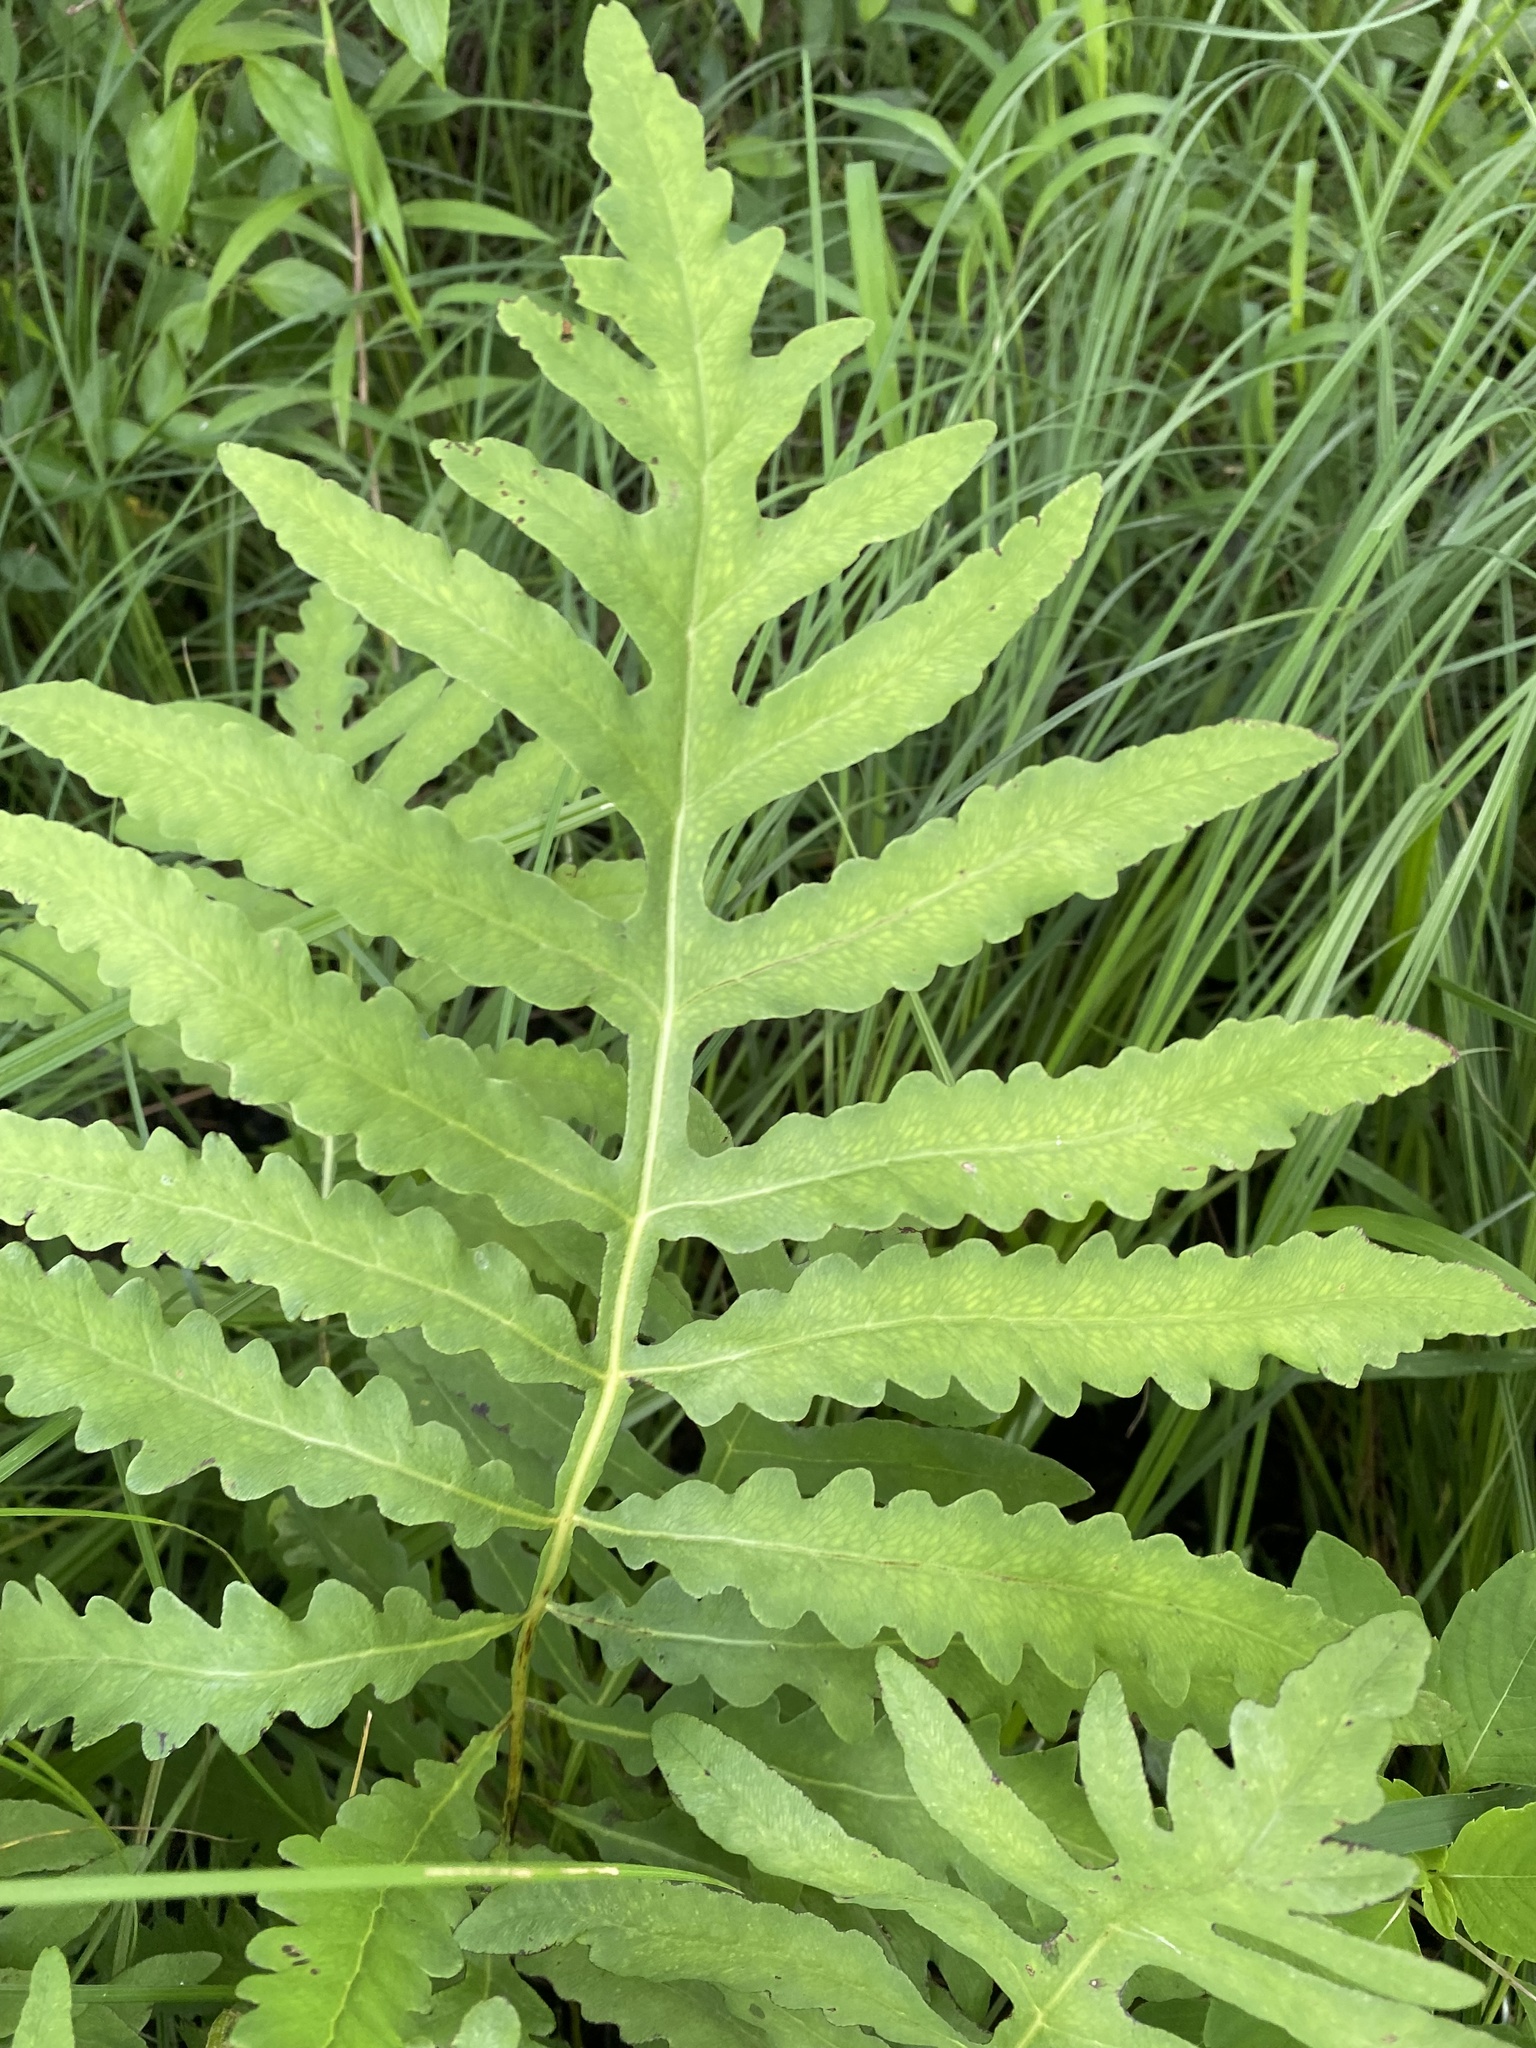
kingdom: Plantae
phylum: Tracheophyta
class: Polypodiopsida
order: Polypodiales
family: Onocleaceae
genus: Onoclea
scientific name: Onoclea sensibilis
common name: Sensitive fern
